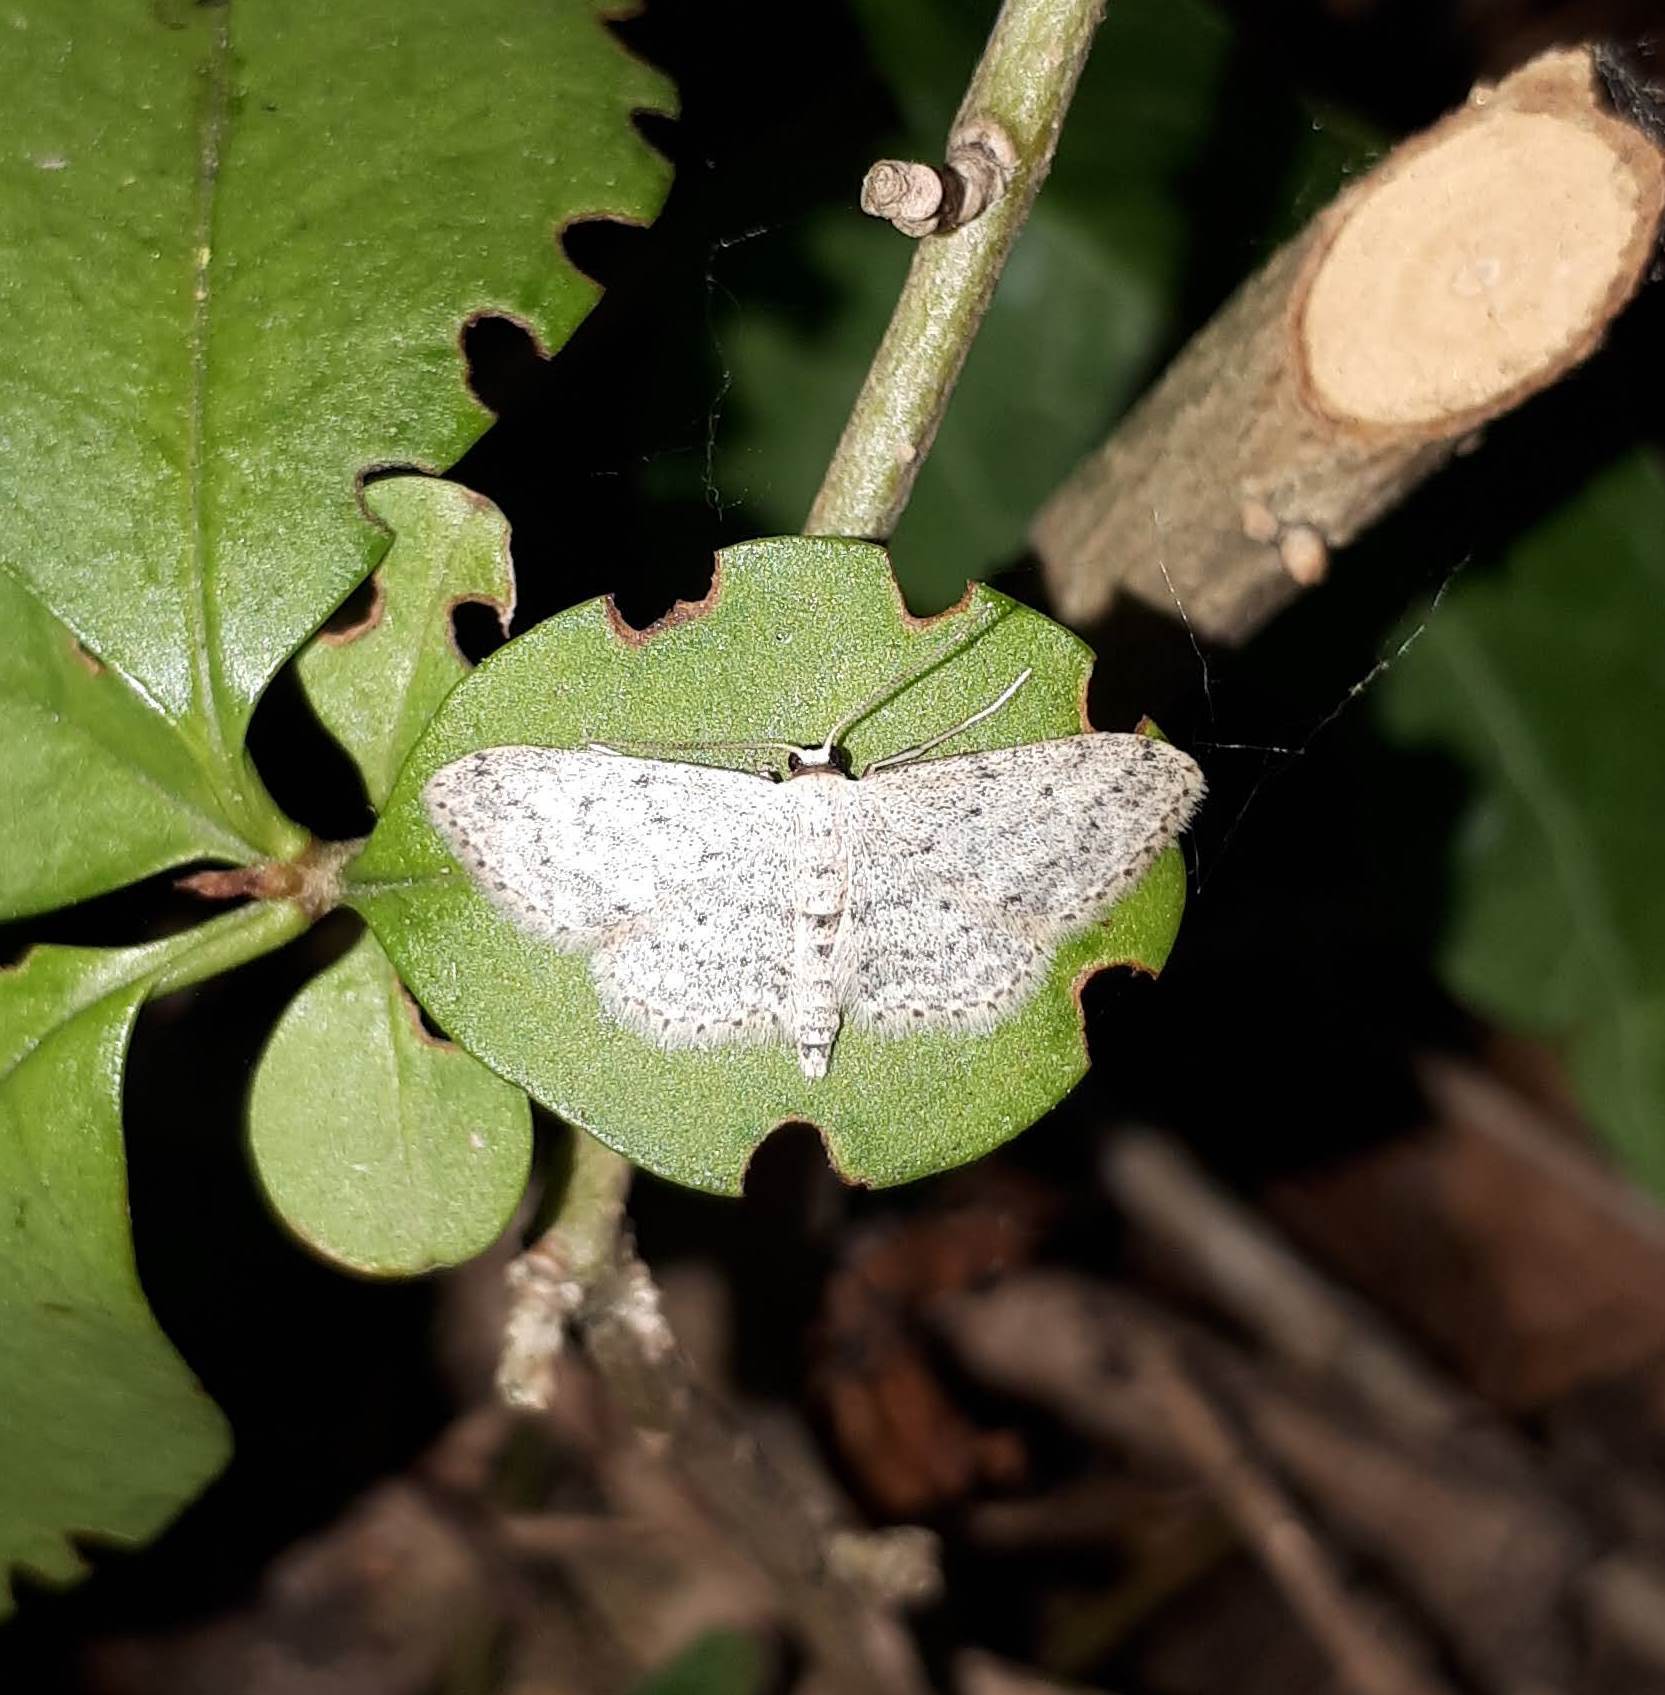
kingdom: Animalia
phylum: Arthropoda
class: Insecta
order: Lepidoptera
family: Geometridae
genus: Idaea
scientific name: Idaea seriata
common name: Small dusty wave
